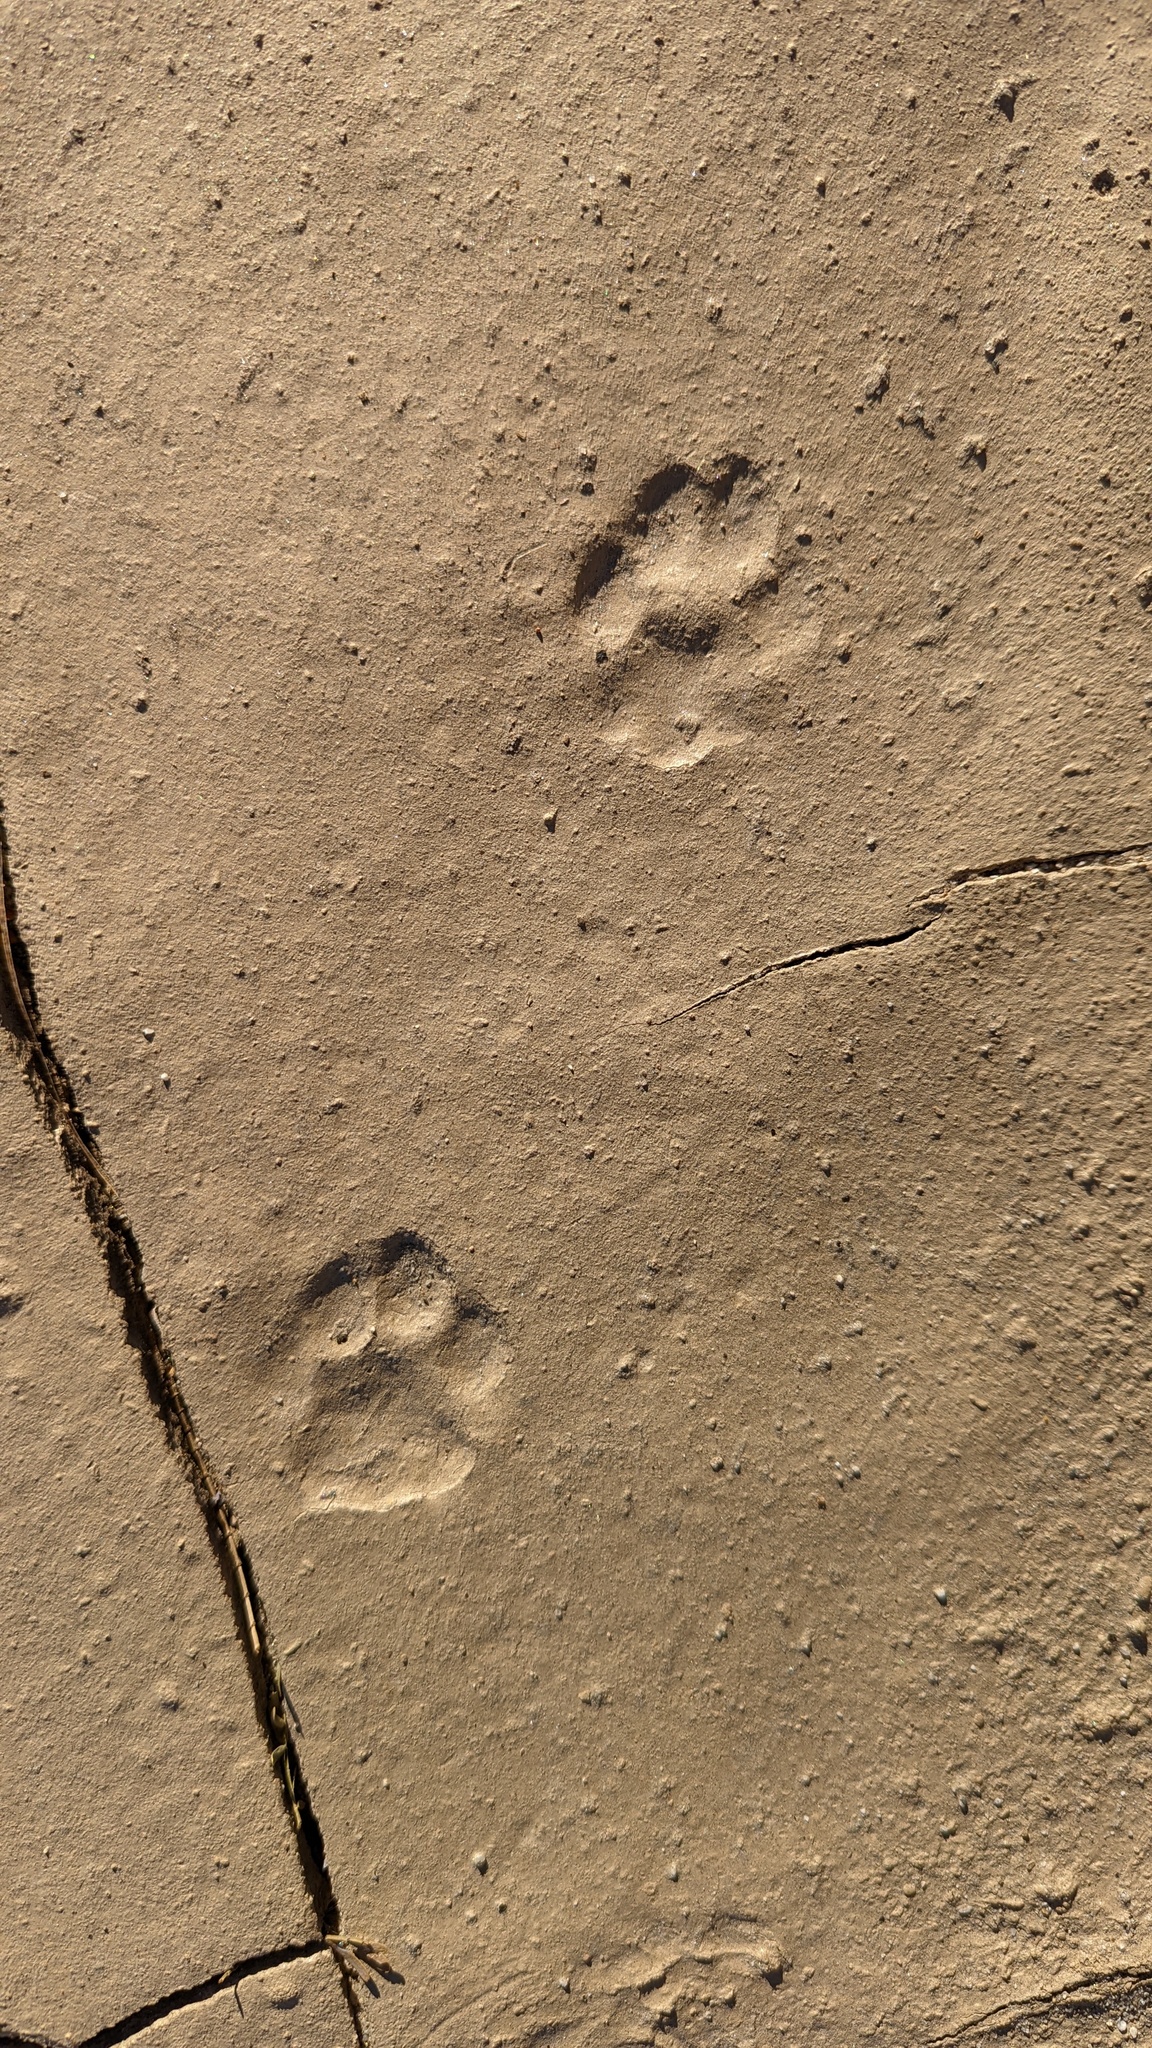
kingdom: Animalia
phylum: Chordata
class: Mammalia
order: Carnivora
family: Felidae
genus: Lynx
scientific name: Lynx rufus
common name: Bobcat
